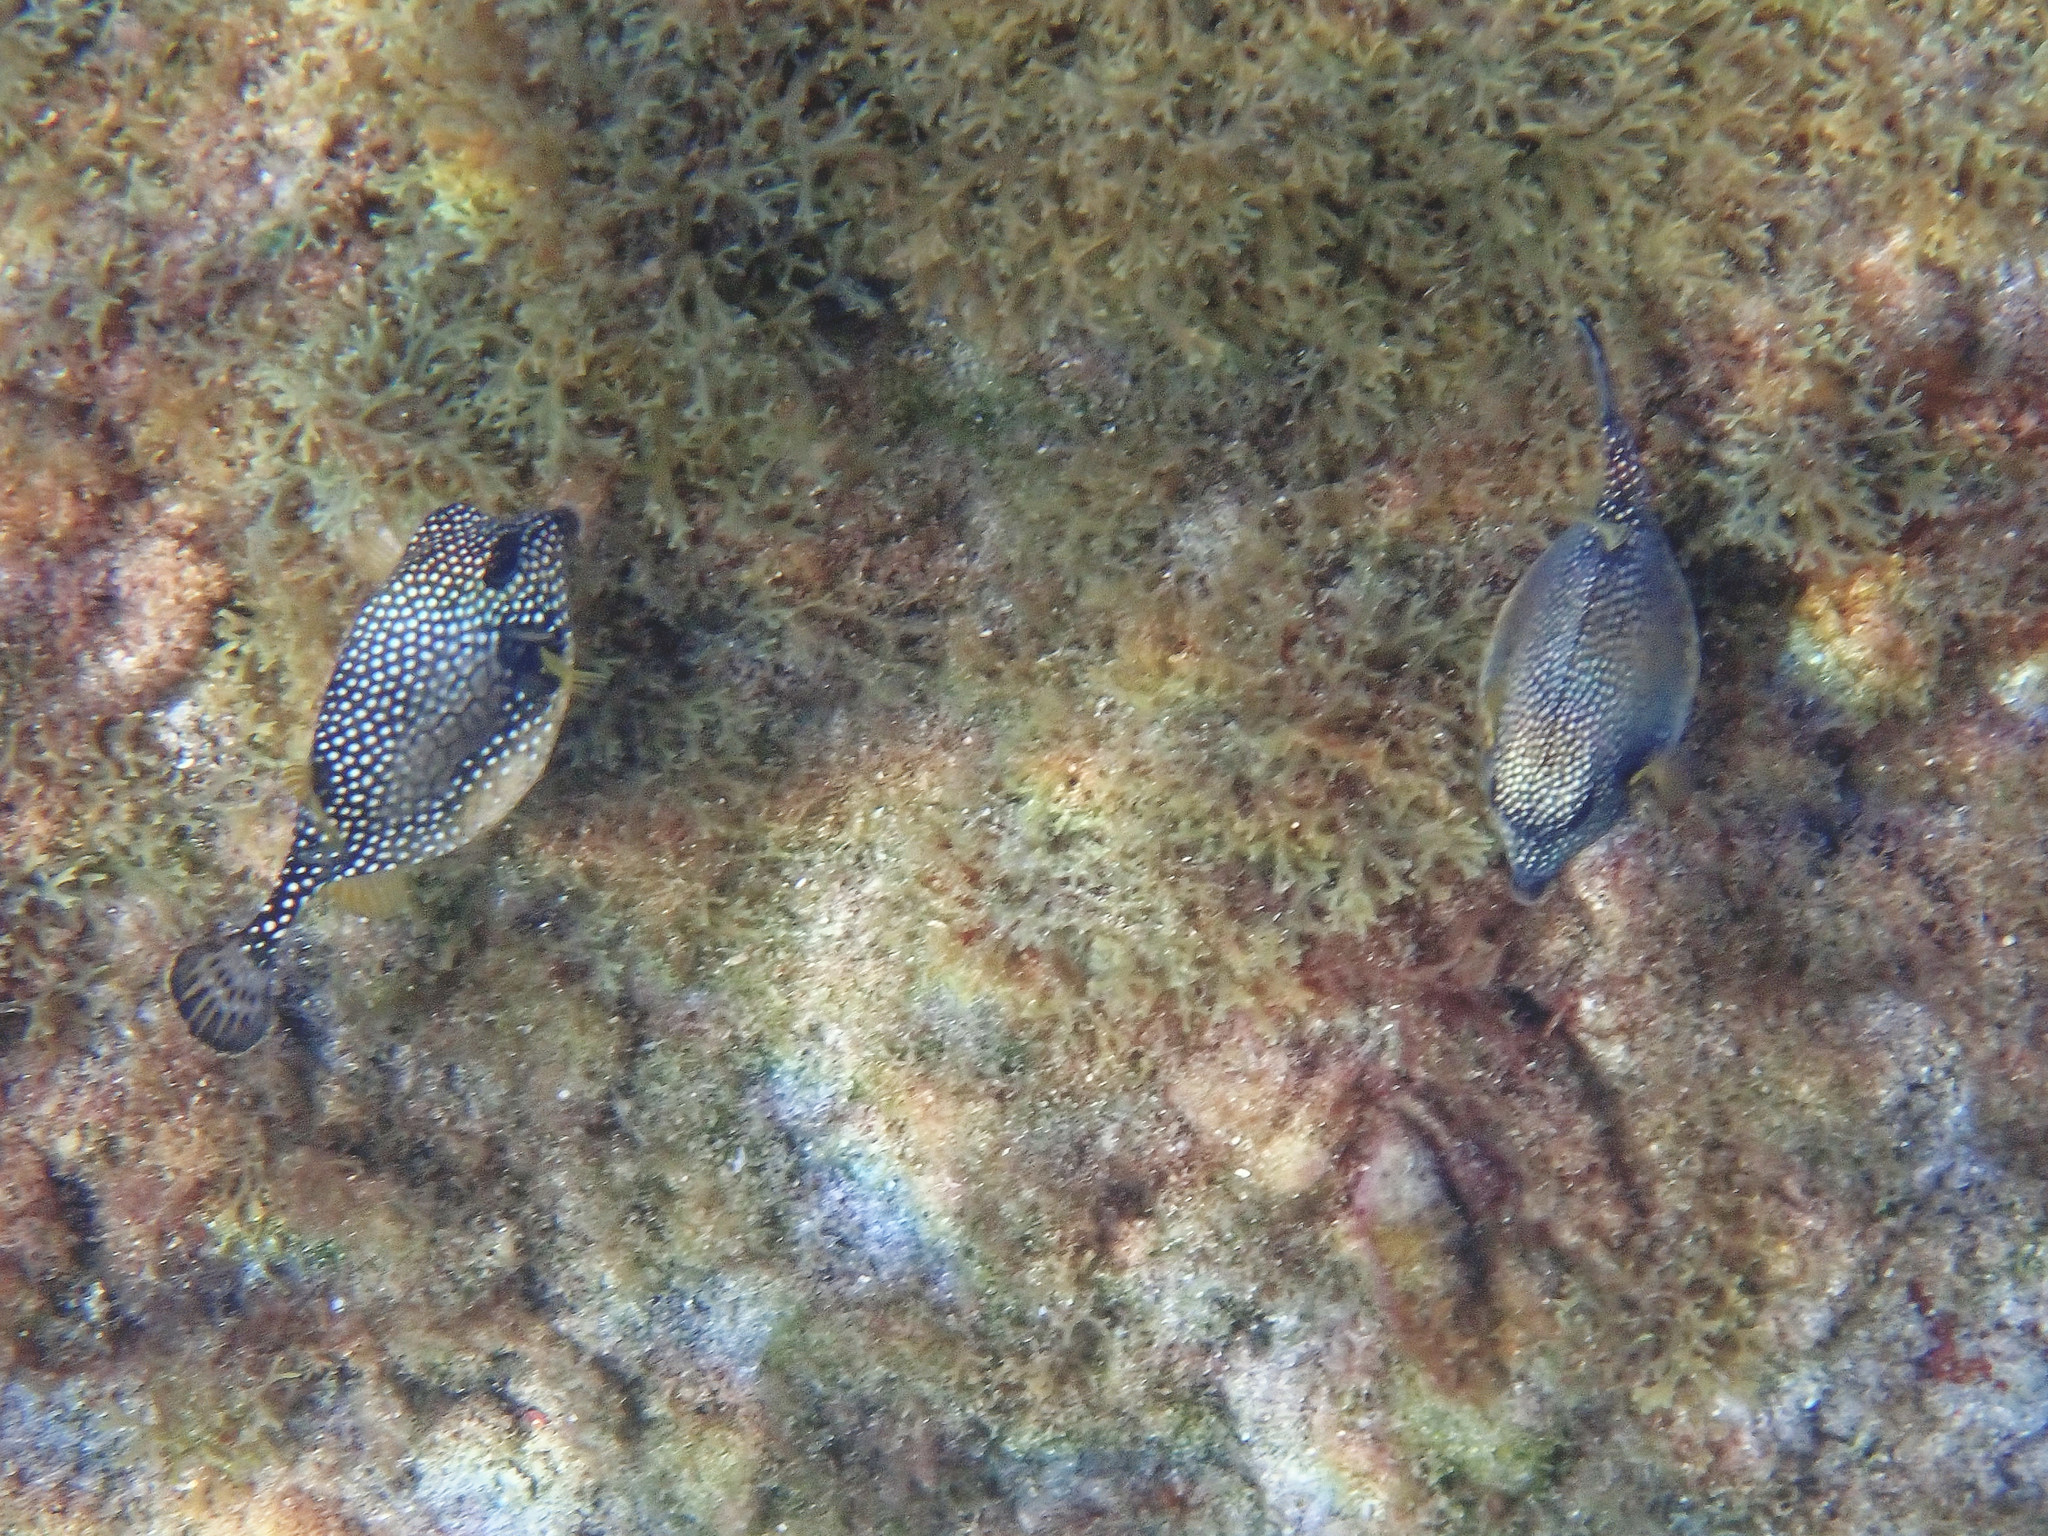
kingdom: Animalia
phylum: Chordata
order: Tetraodontiformes
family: Ostraciidae
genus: Lactophrys
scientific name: Lactophrys triqueter
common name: Smooth trunkfish
